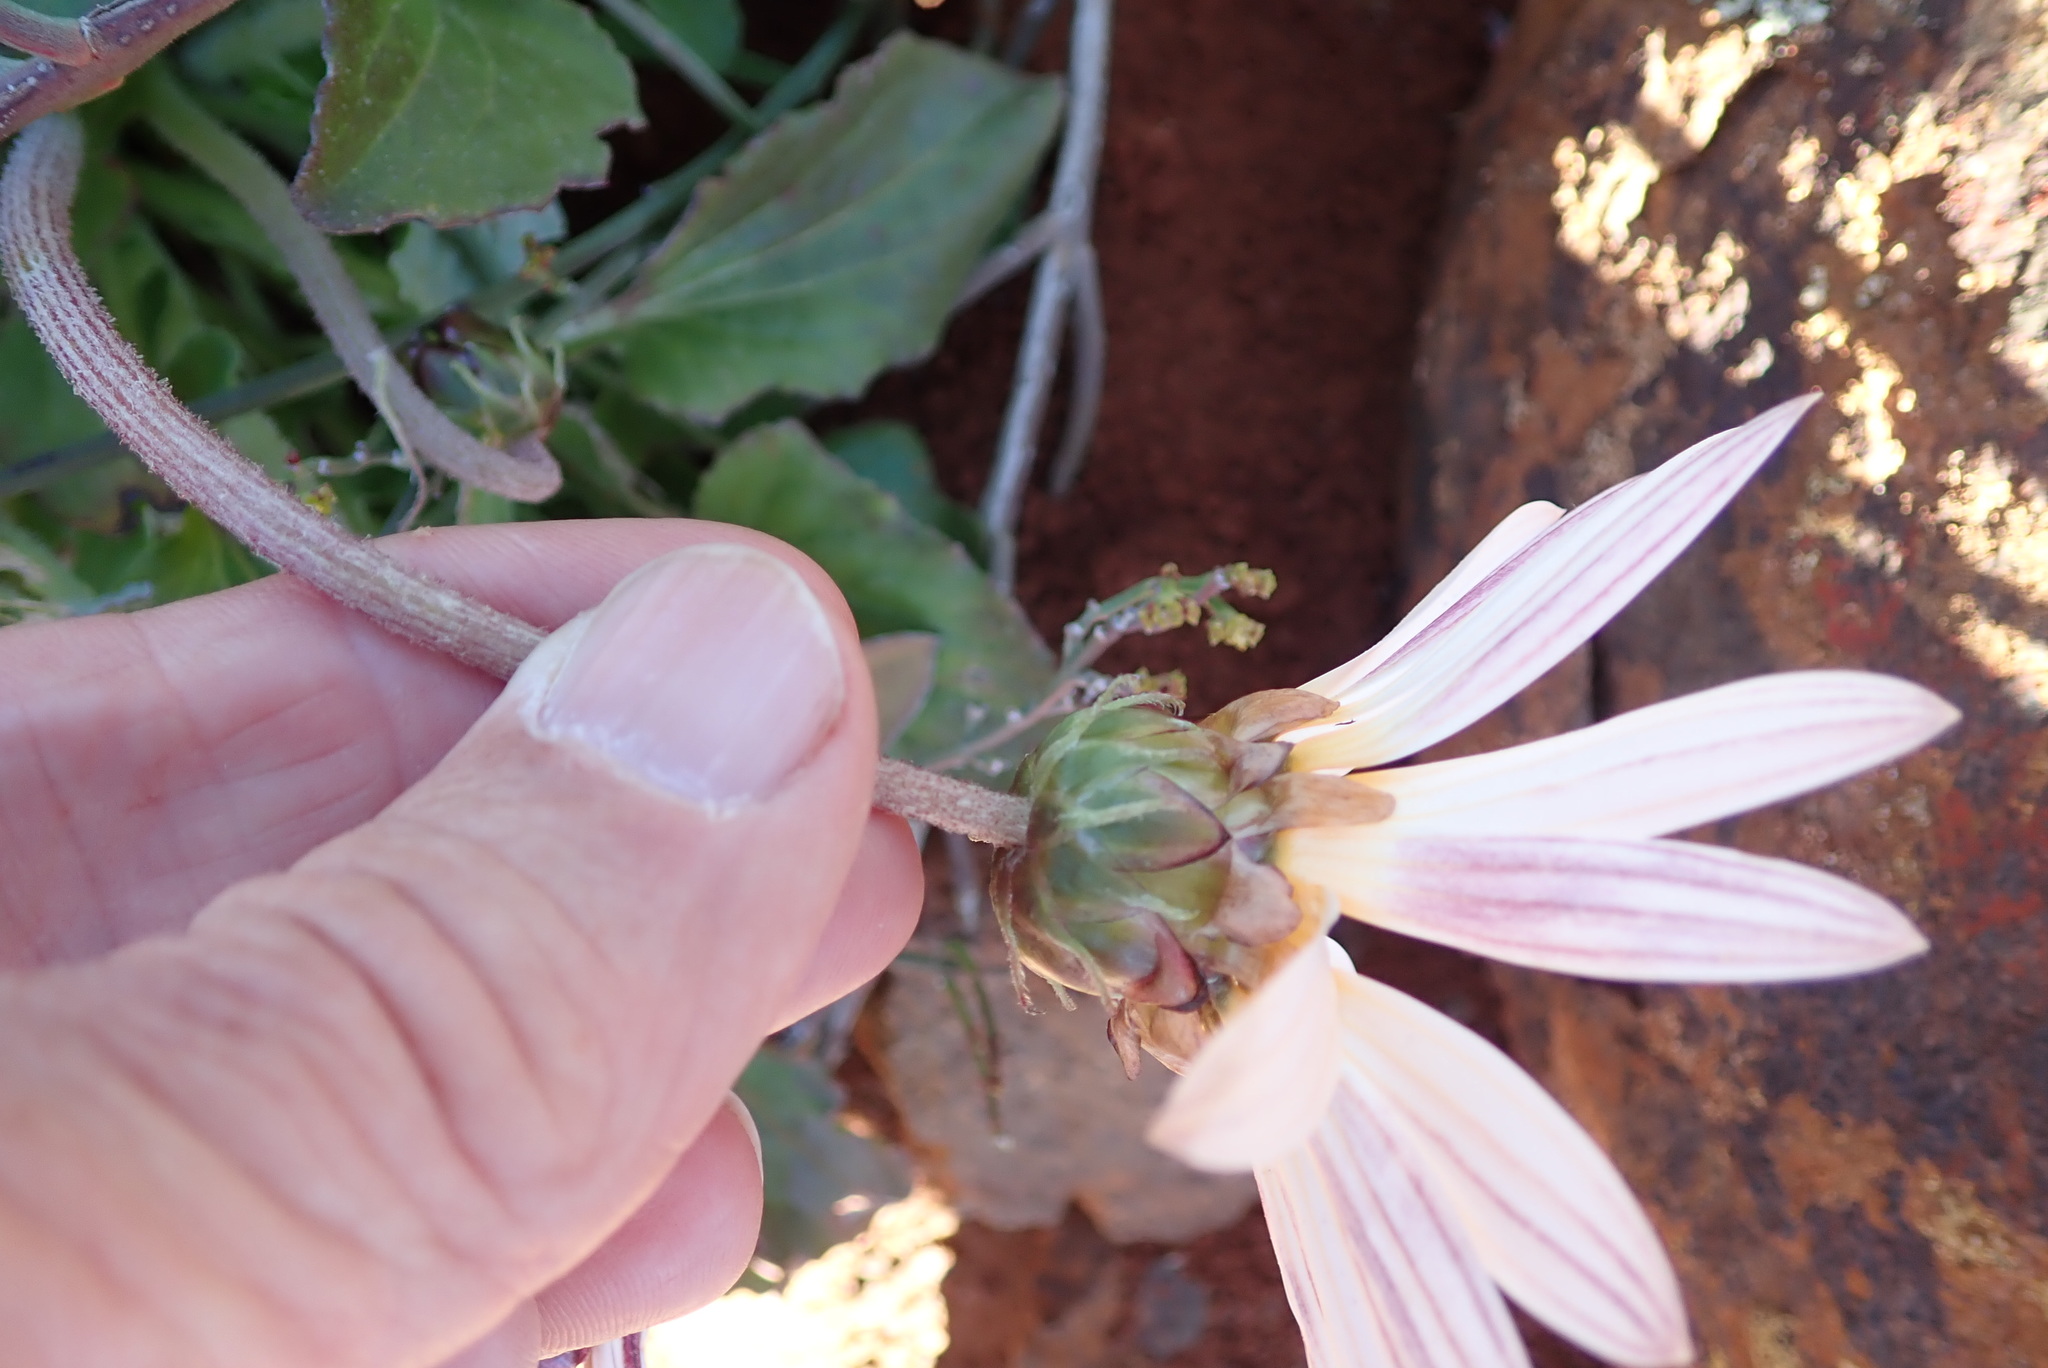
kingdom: Plantae
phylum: Tracheophyta
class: Magnoliopsida
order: Asterales
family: Asteraceae
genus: Arctotis
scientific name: Arctotis acaulis
